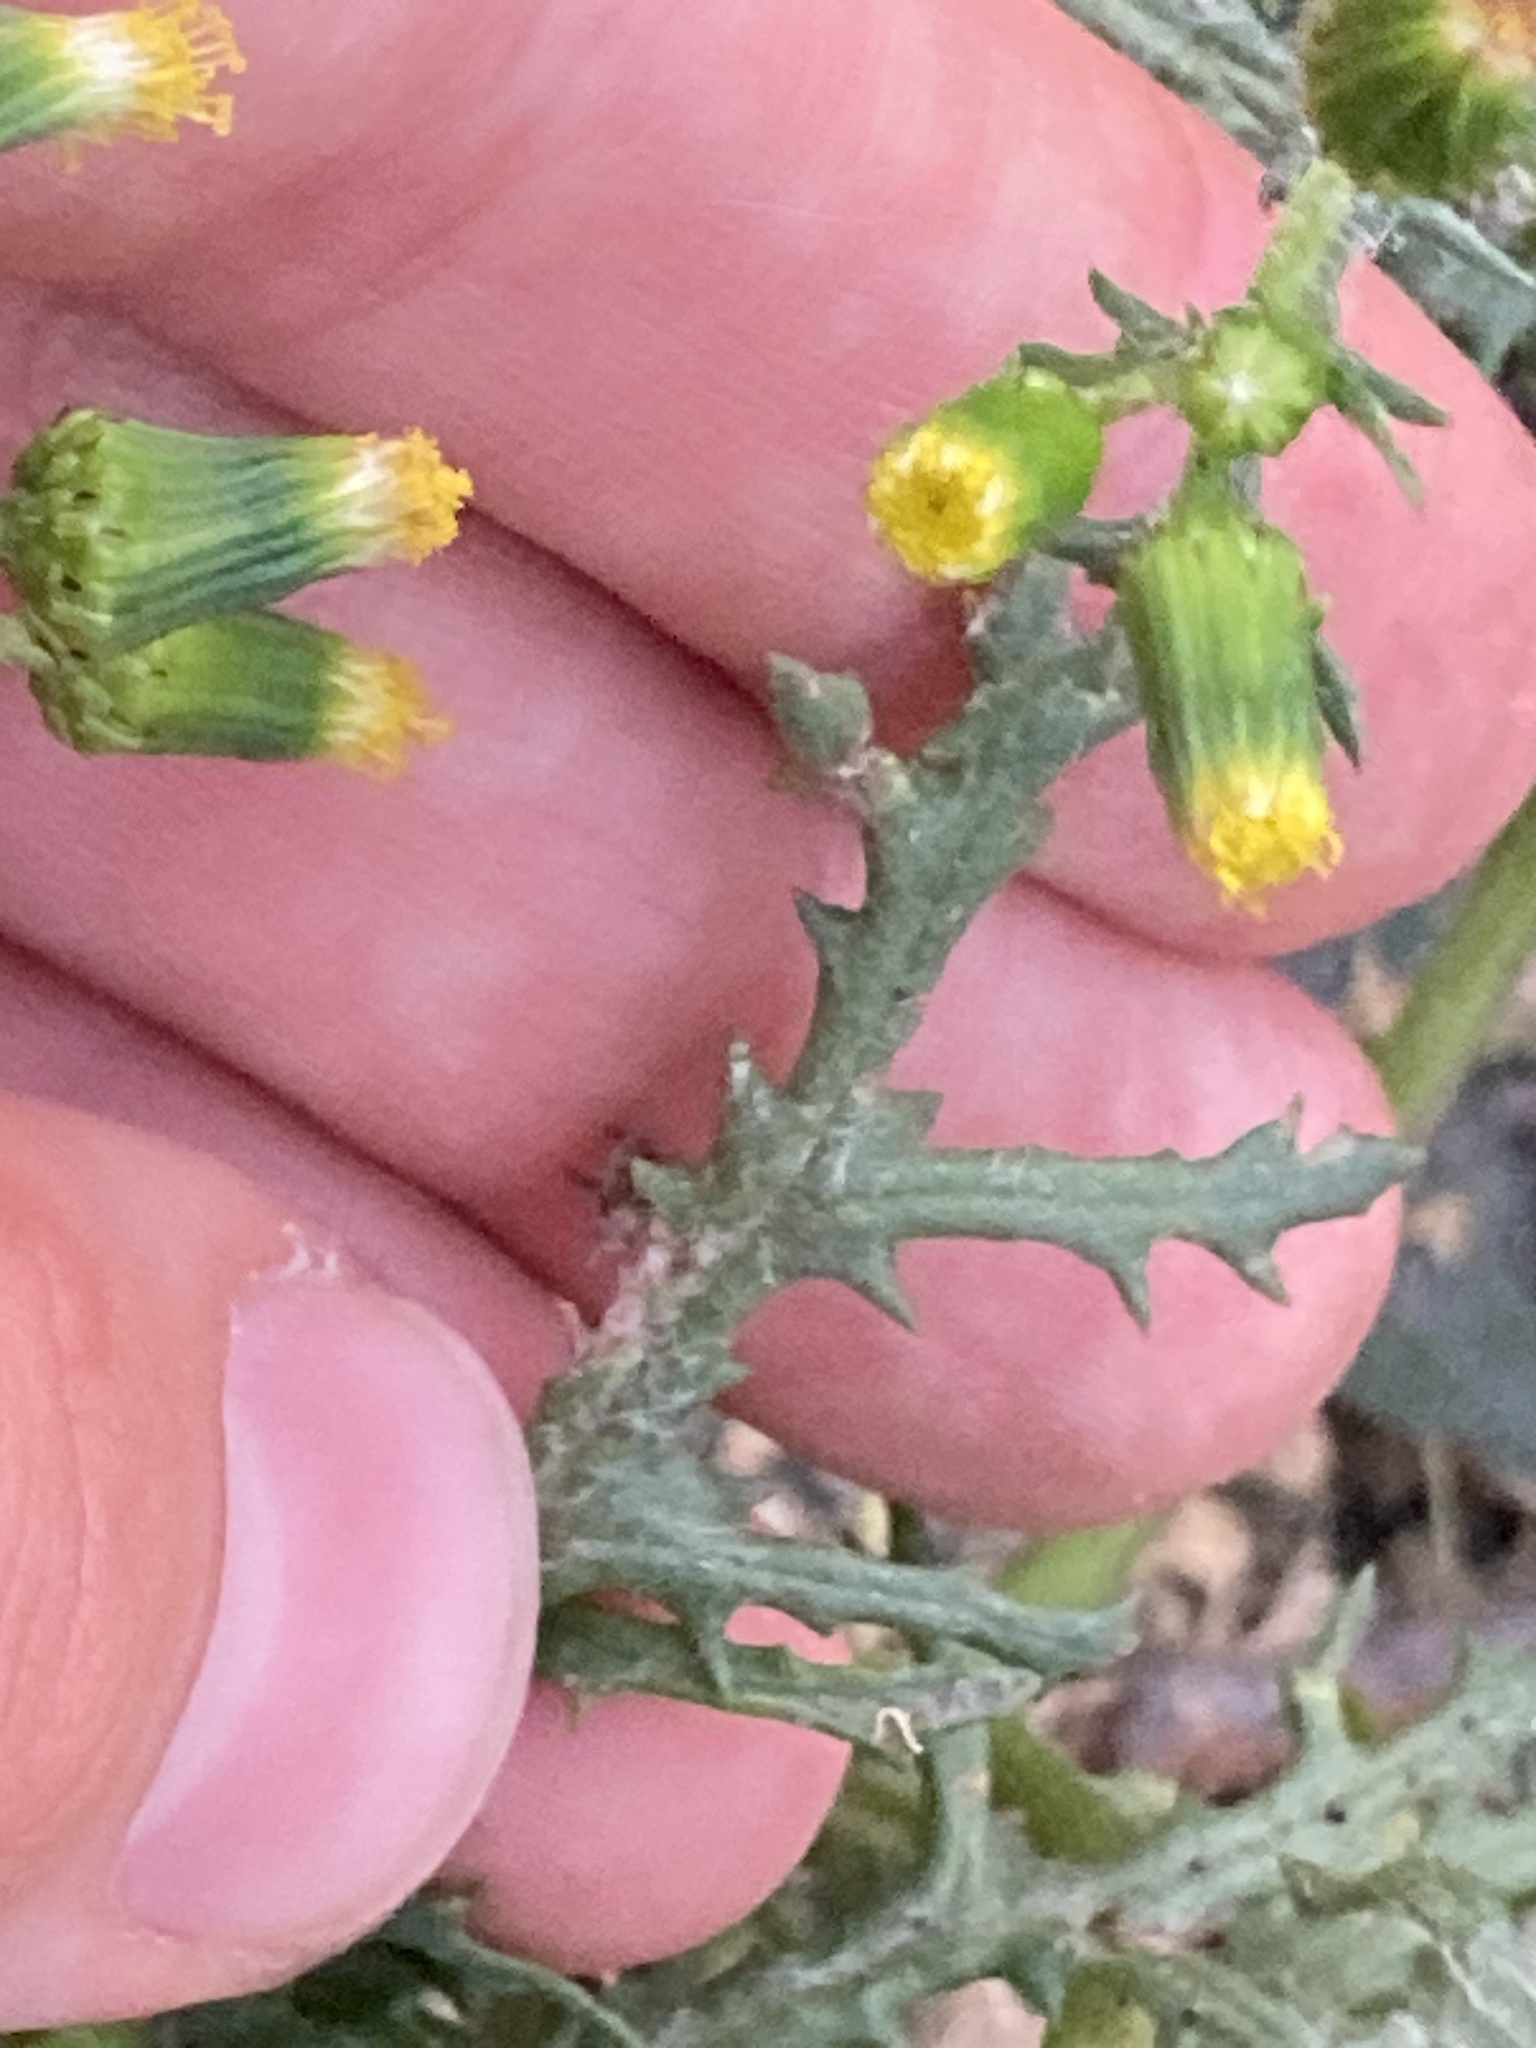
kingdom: Plantae
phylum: Tracheophyta
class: Magnoliopsida
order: Asterales
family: Asteraceae
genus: Senecio
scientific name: Senecio vulgaris
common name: Old-man-in-the-spring
